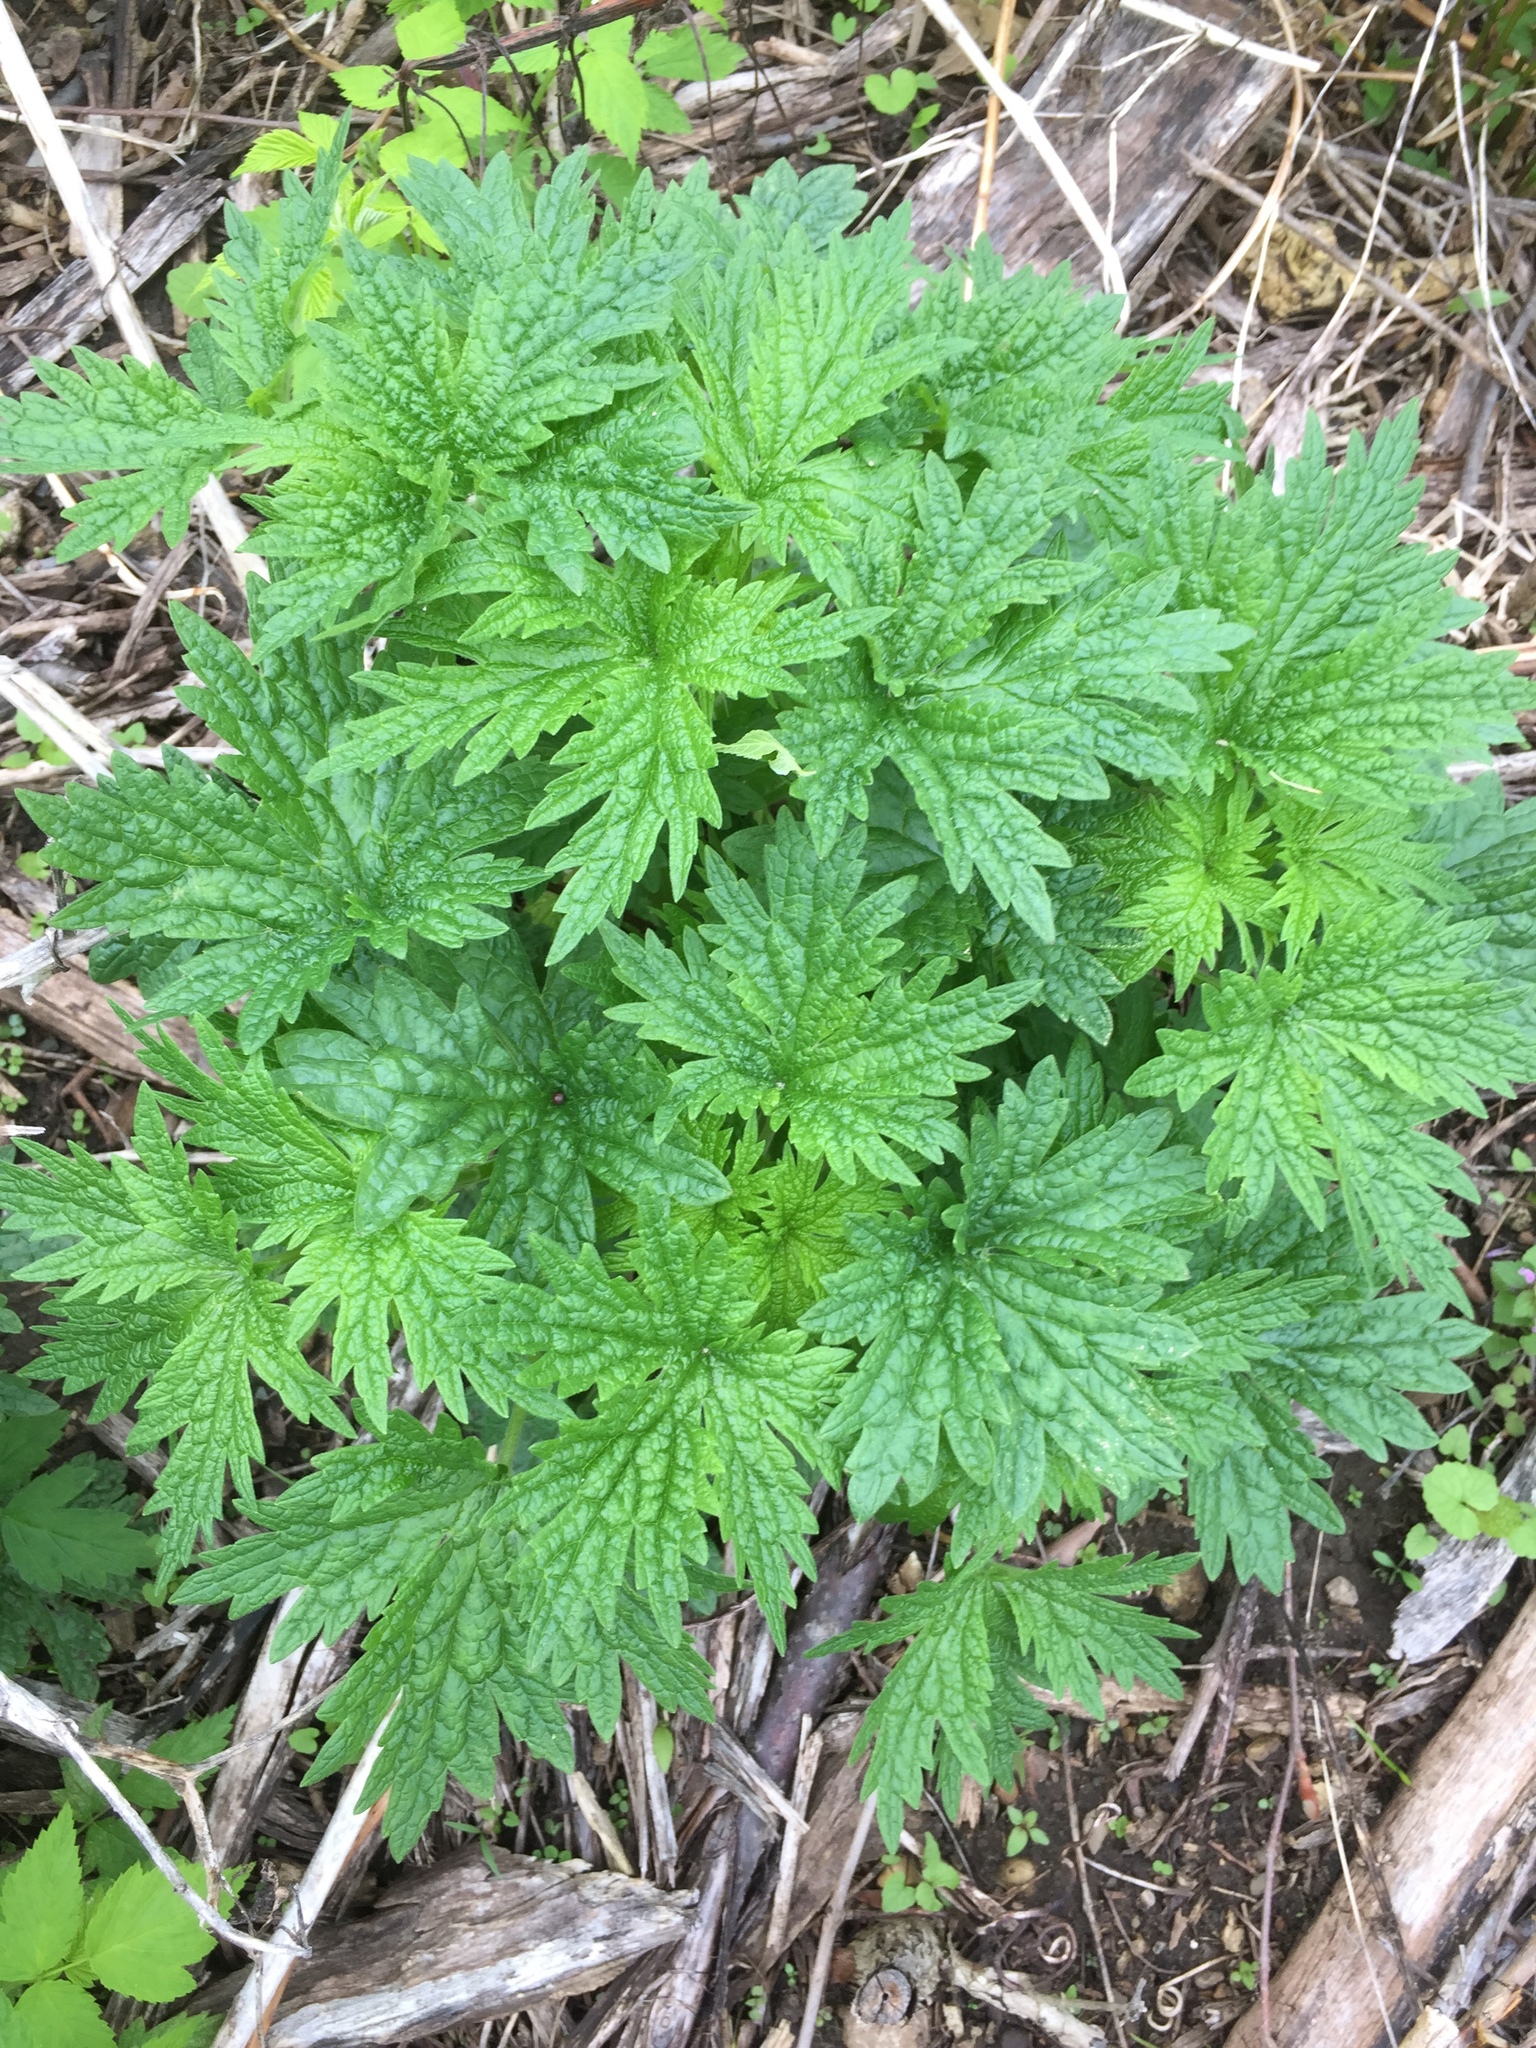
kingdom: Plantae
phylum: Tracheophyta
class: Magnoliopsida
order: Lamiales
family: Lamiaceae
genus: Leonurus
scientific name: Leonurus cardiaca
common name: Motherwort
